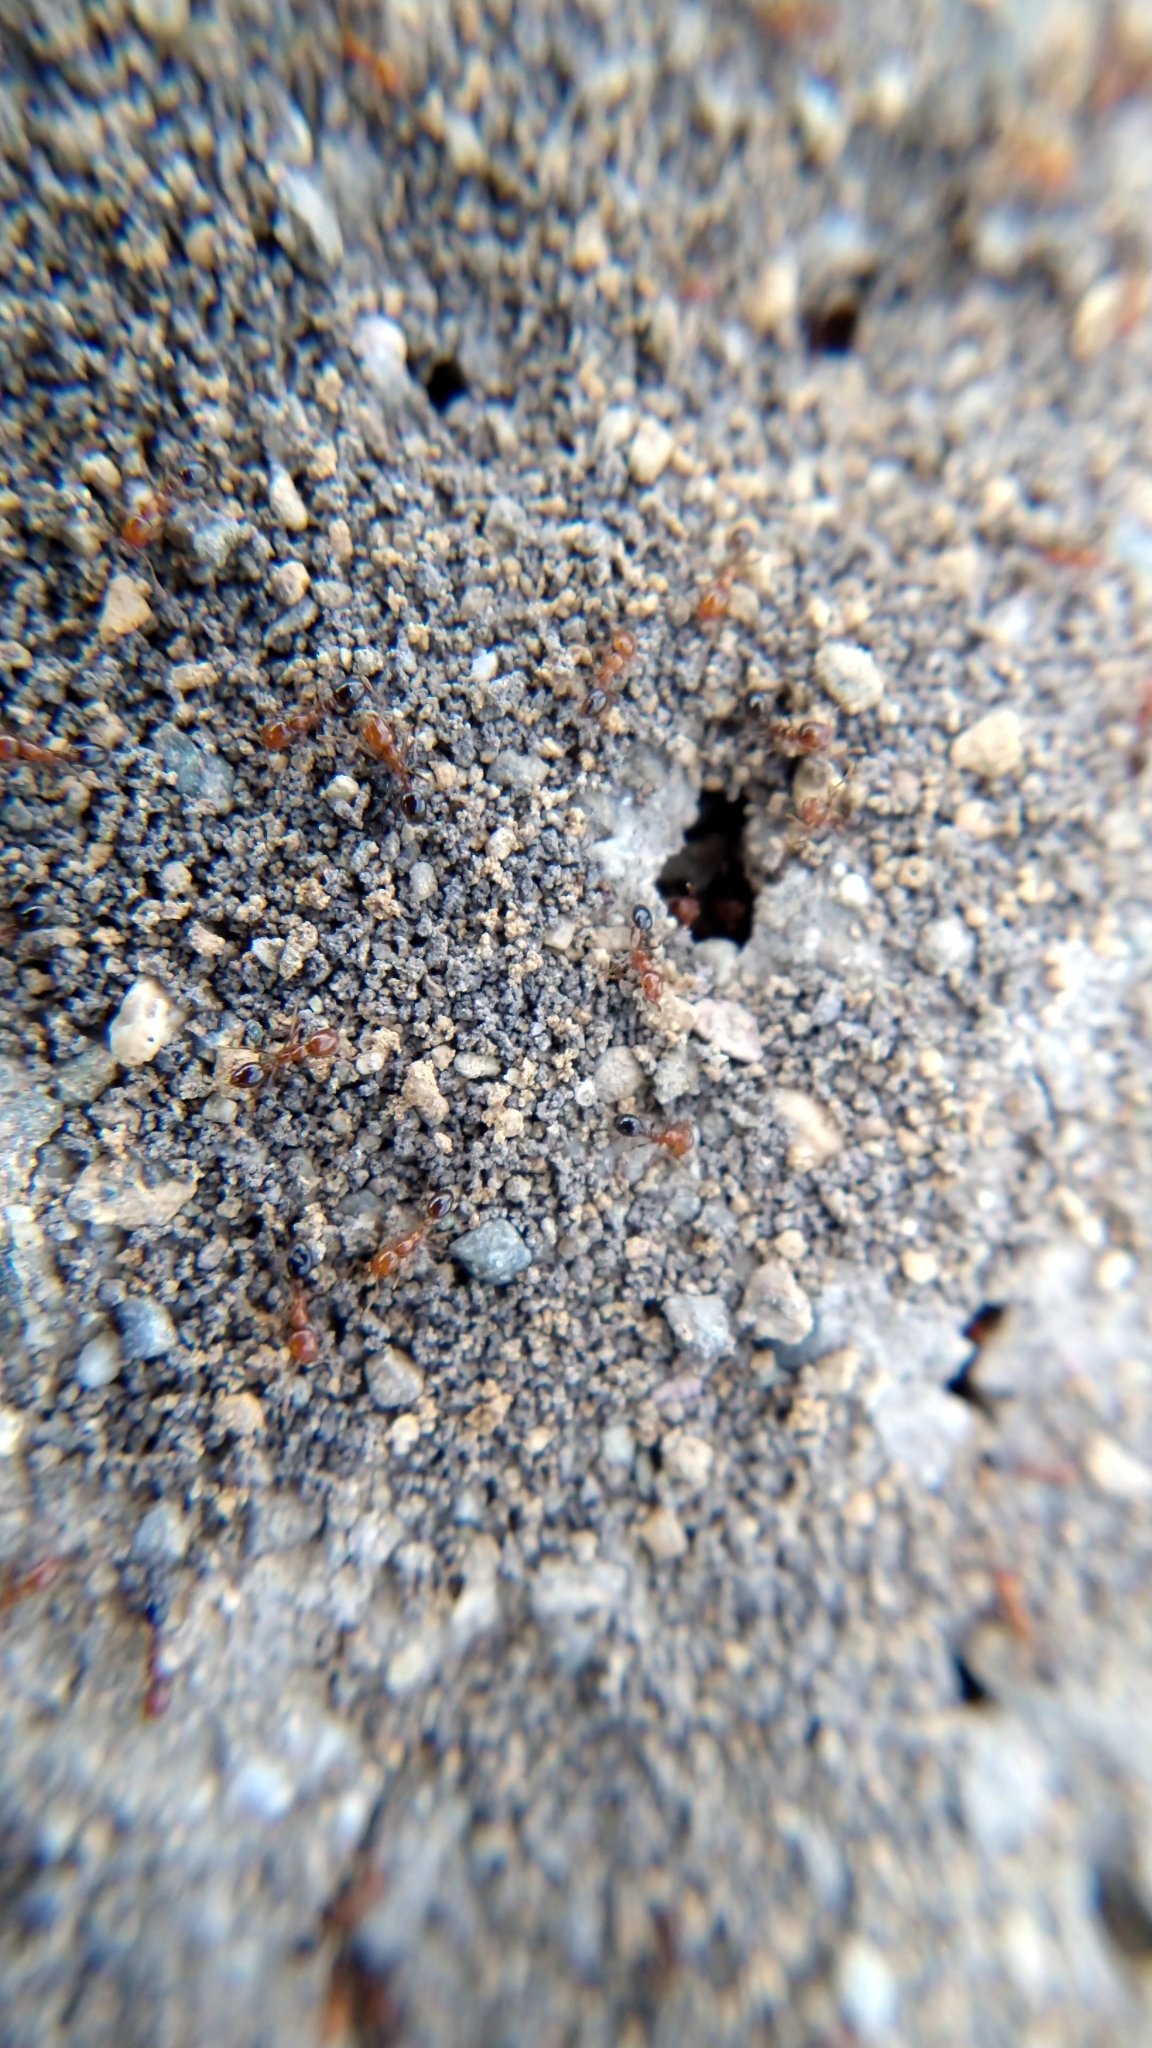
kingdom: Animalia
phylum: Arthropoda
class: Insecta
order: Hymenoptera
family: Formicidae
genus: Solenopsis
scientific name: Solenopsis xyloni
